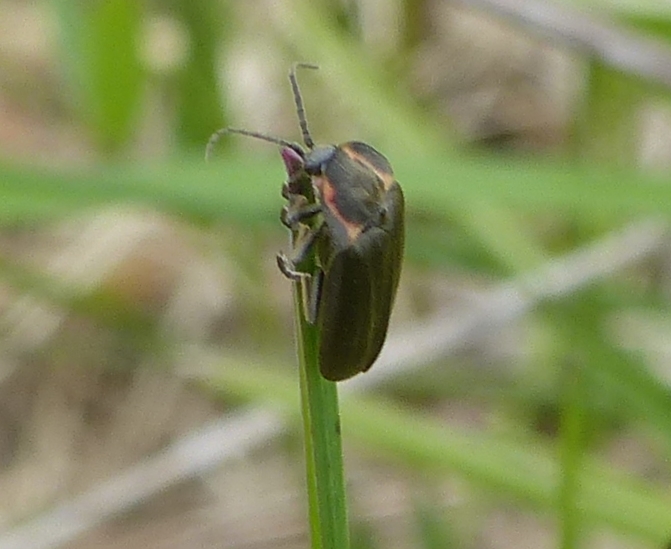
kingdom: Animalia
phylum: Arthropoda
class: Insecta
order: Coleoptera
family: Lampyridae
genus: Photinus
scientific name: Photinus corrusca
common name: Winter firefly
